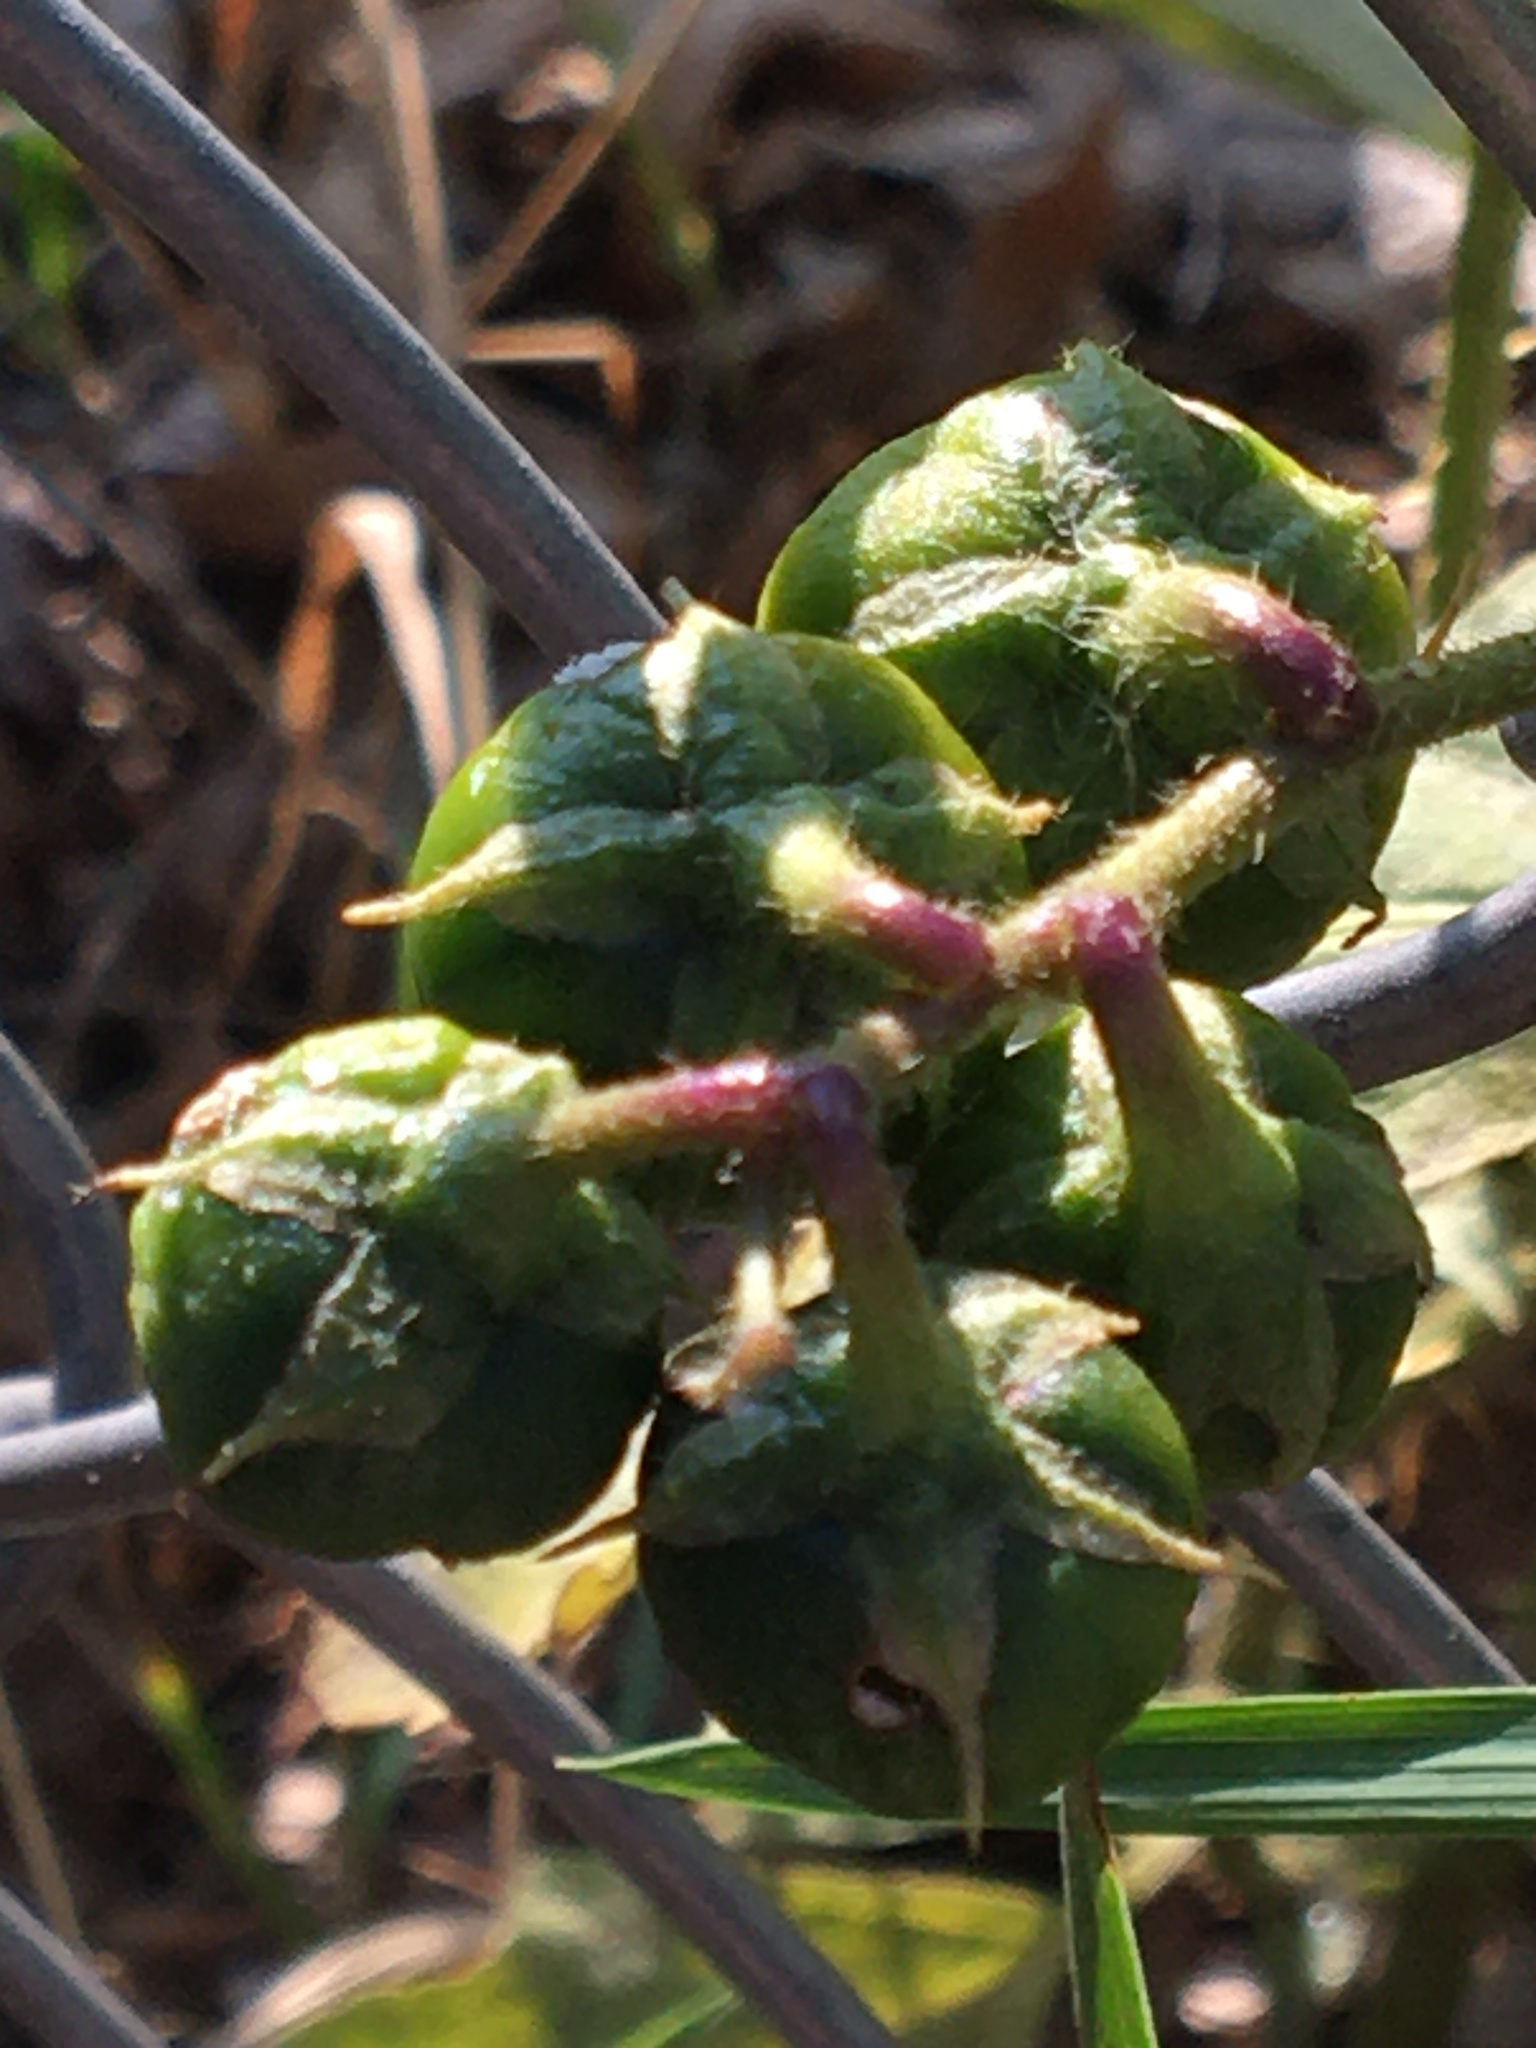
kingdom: Plantae
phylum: Tracheophyta
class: Magnoliopsida
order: Solanales
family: Solanaceae
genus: Solanum
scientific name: Solanum carolinense
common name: Horse-nettle
